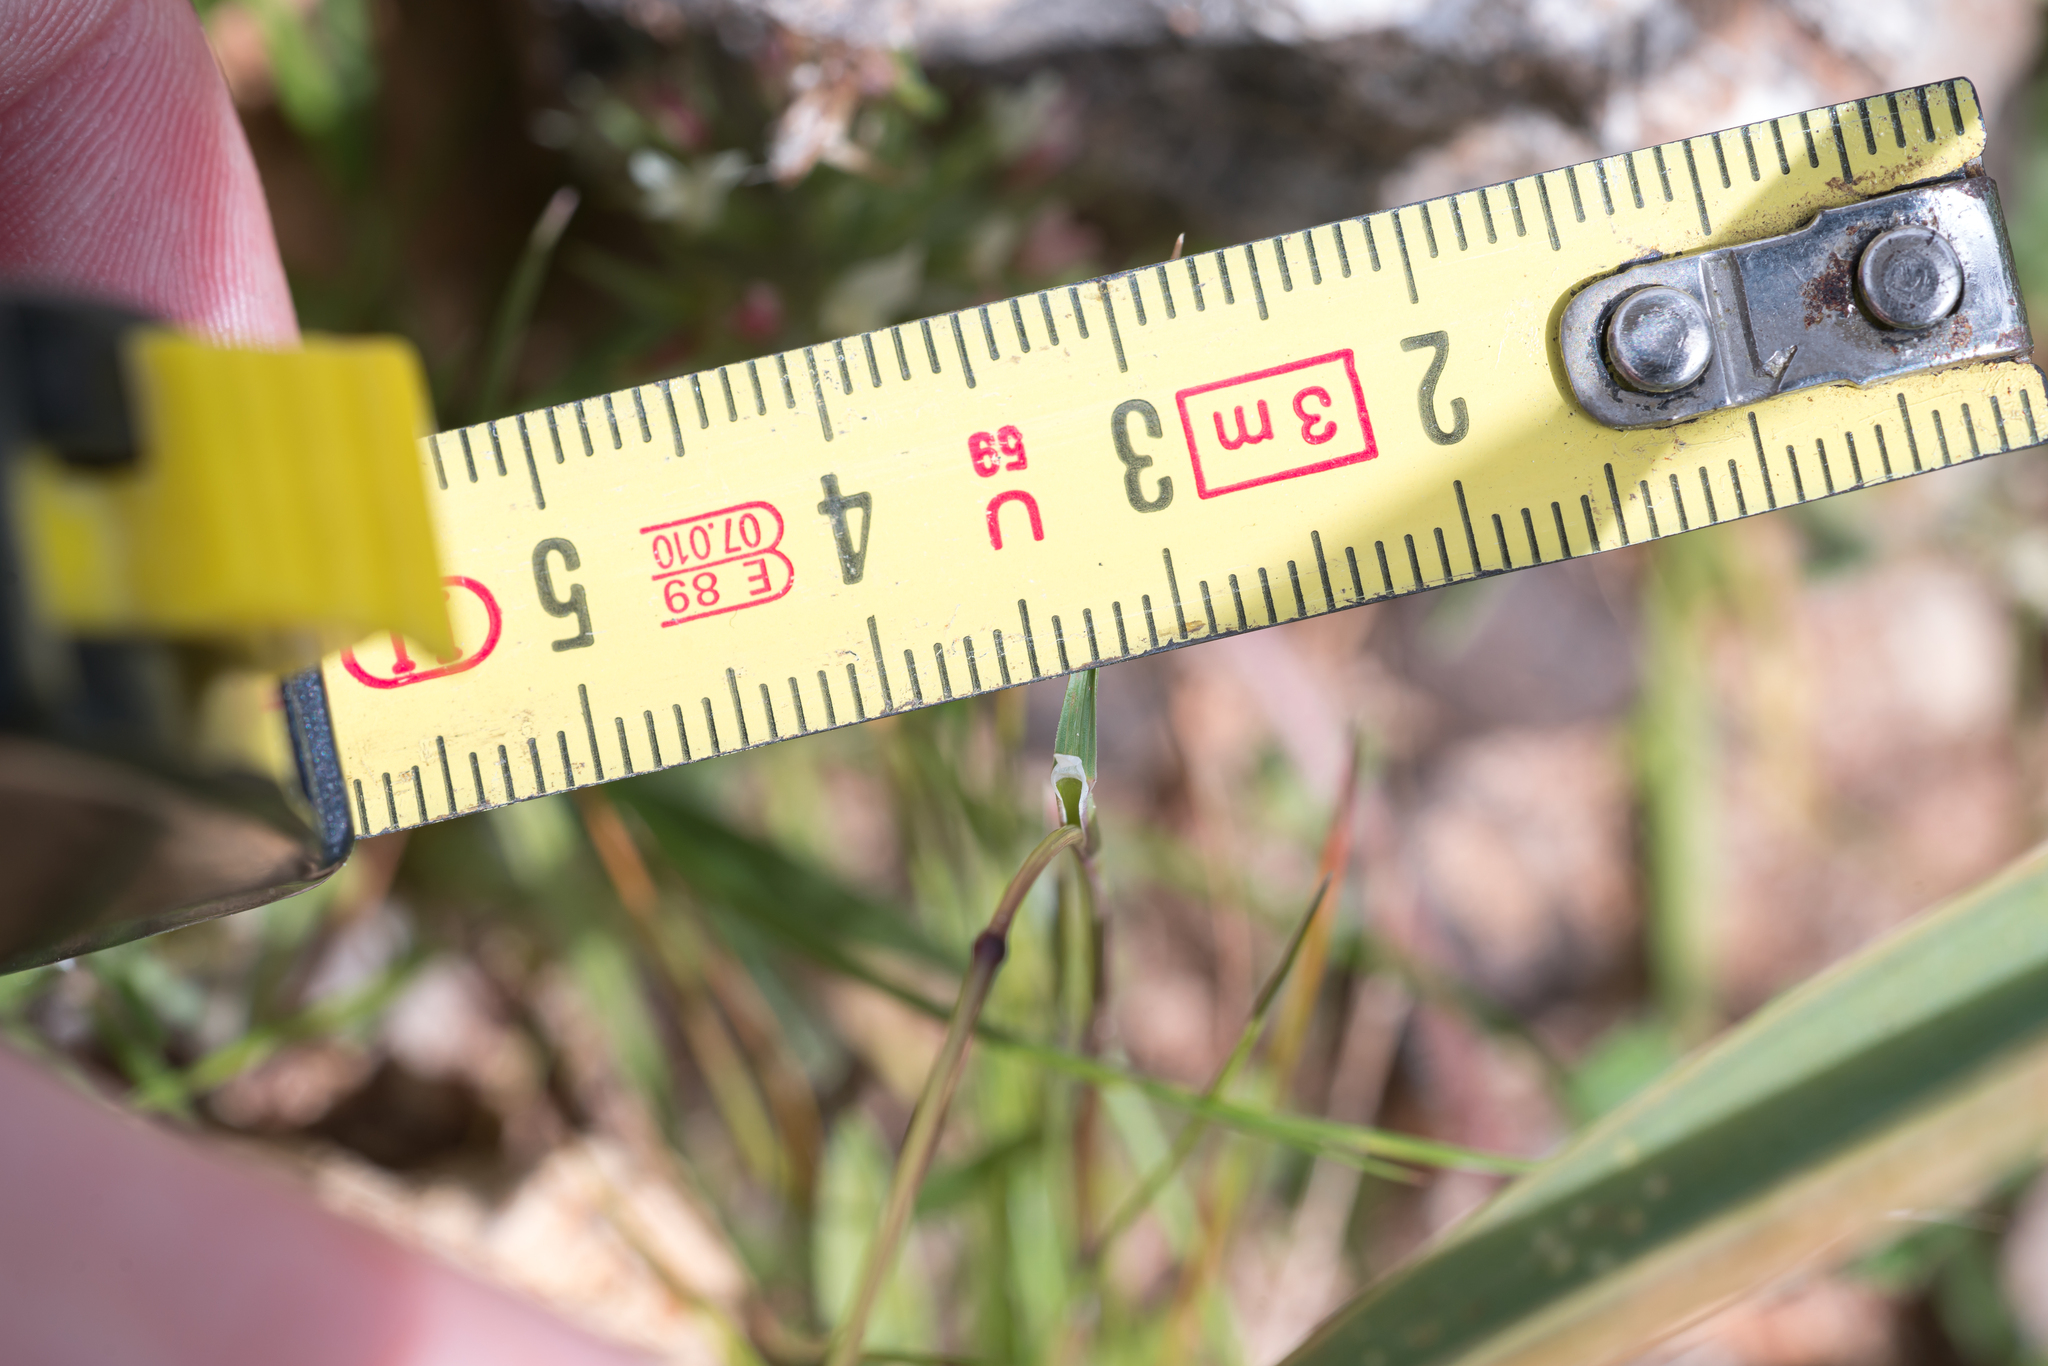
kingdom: Plantae
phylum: Tracheophyta
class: Liliopsida
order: Poales
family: Poaceae
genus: Poa
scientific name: Poa bulbosa
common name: Bulbous bluegrass
